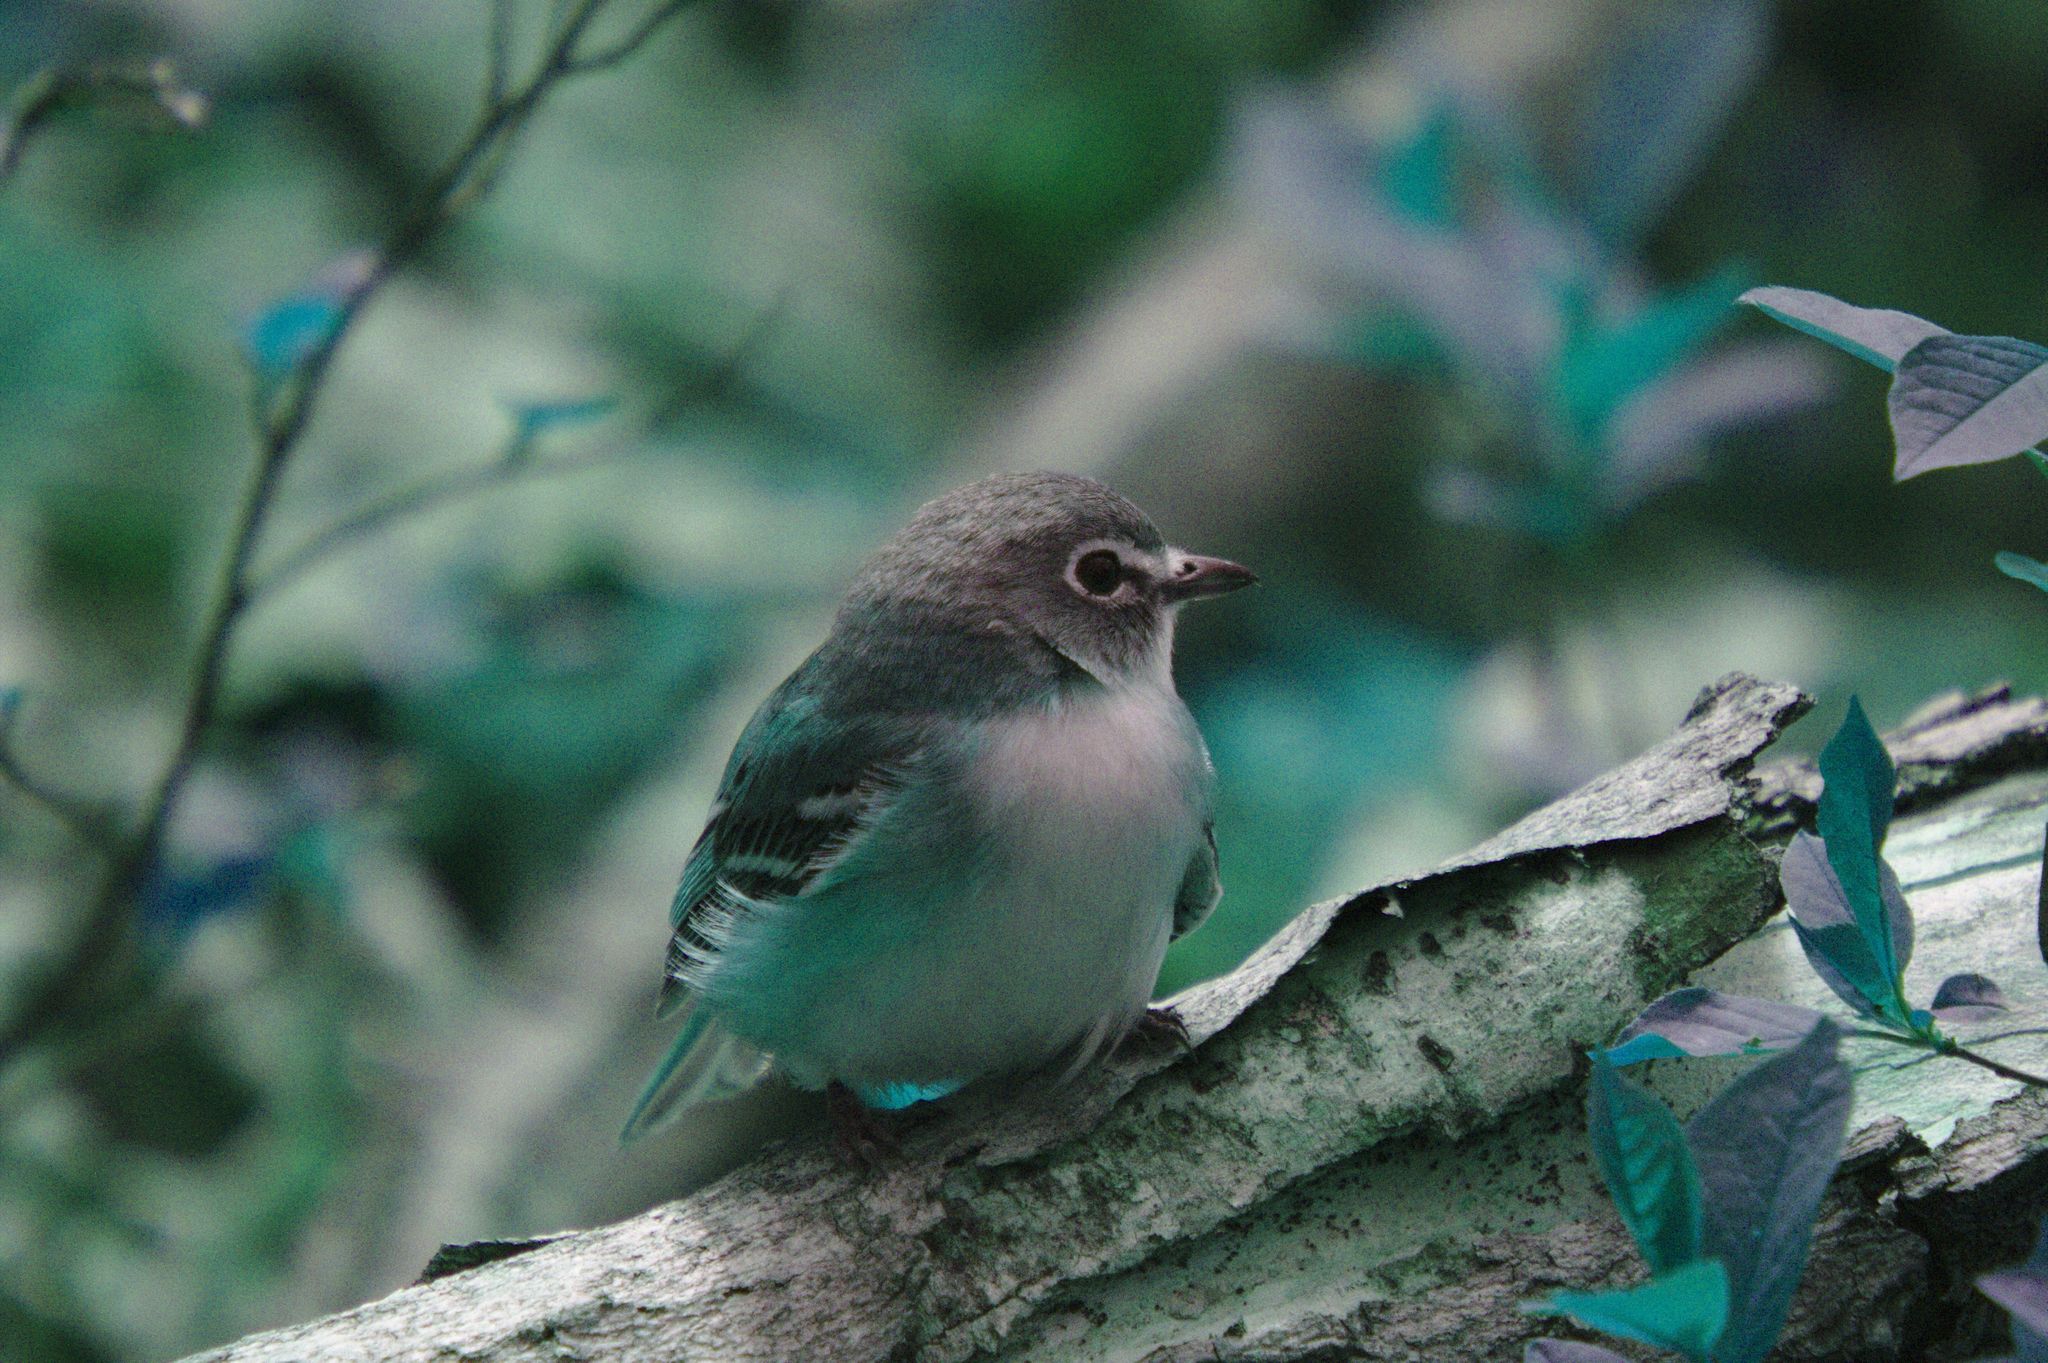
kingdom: Animalia
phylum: Chordata
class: Aves
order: Passeriformes
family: Vireonidae
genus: Vireo
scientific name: Vireo solitarius
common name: Blue-headed vireo
